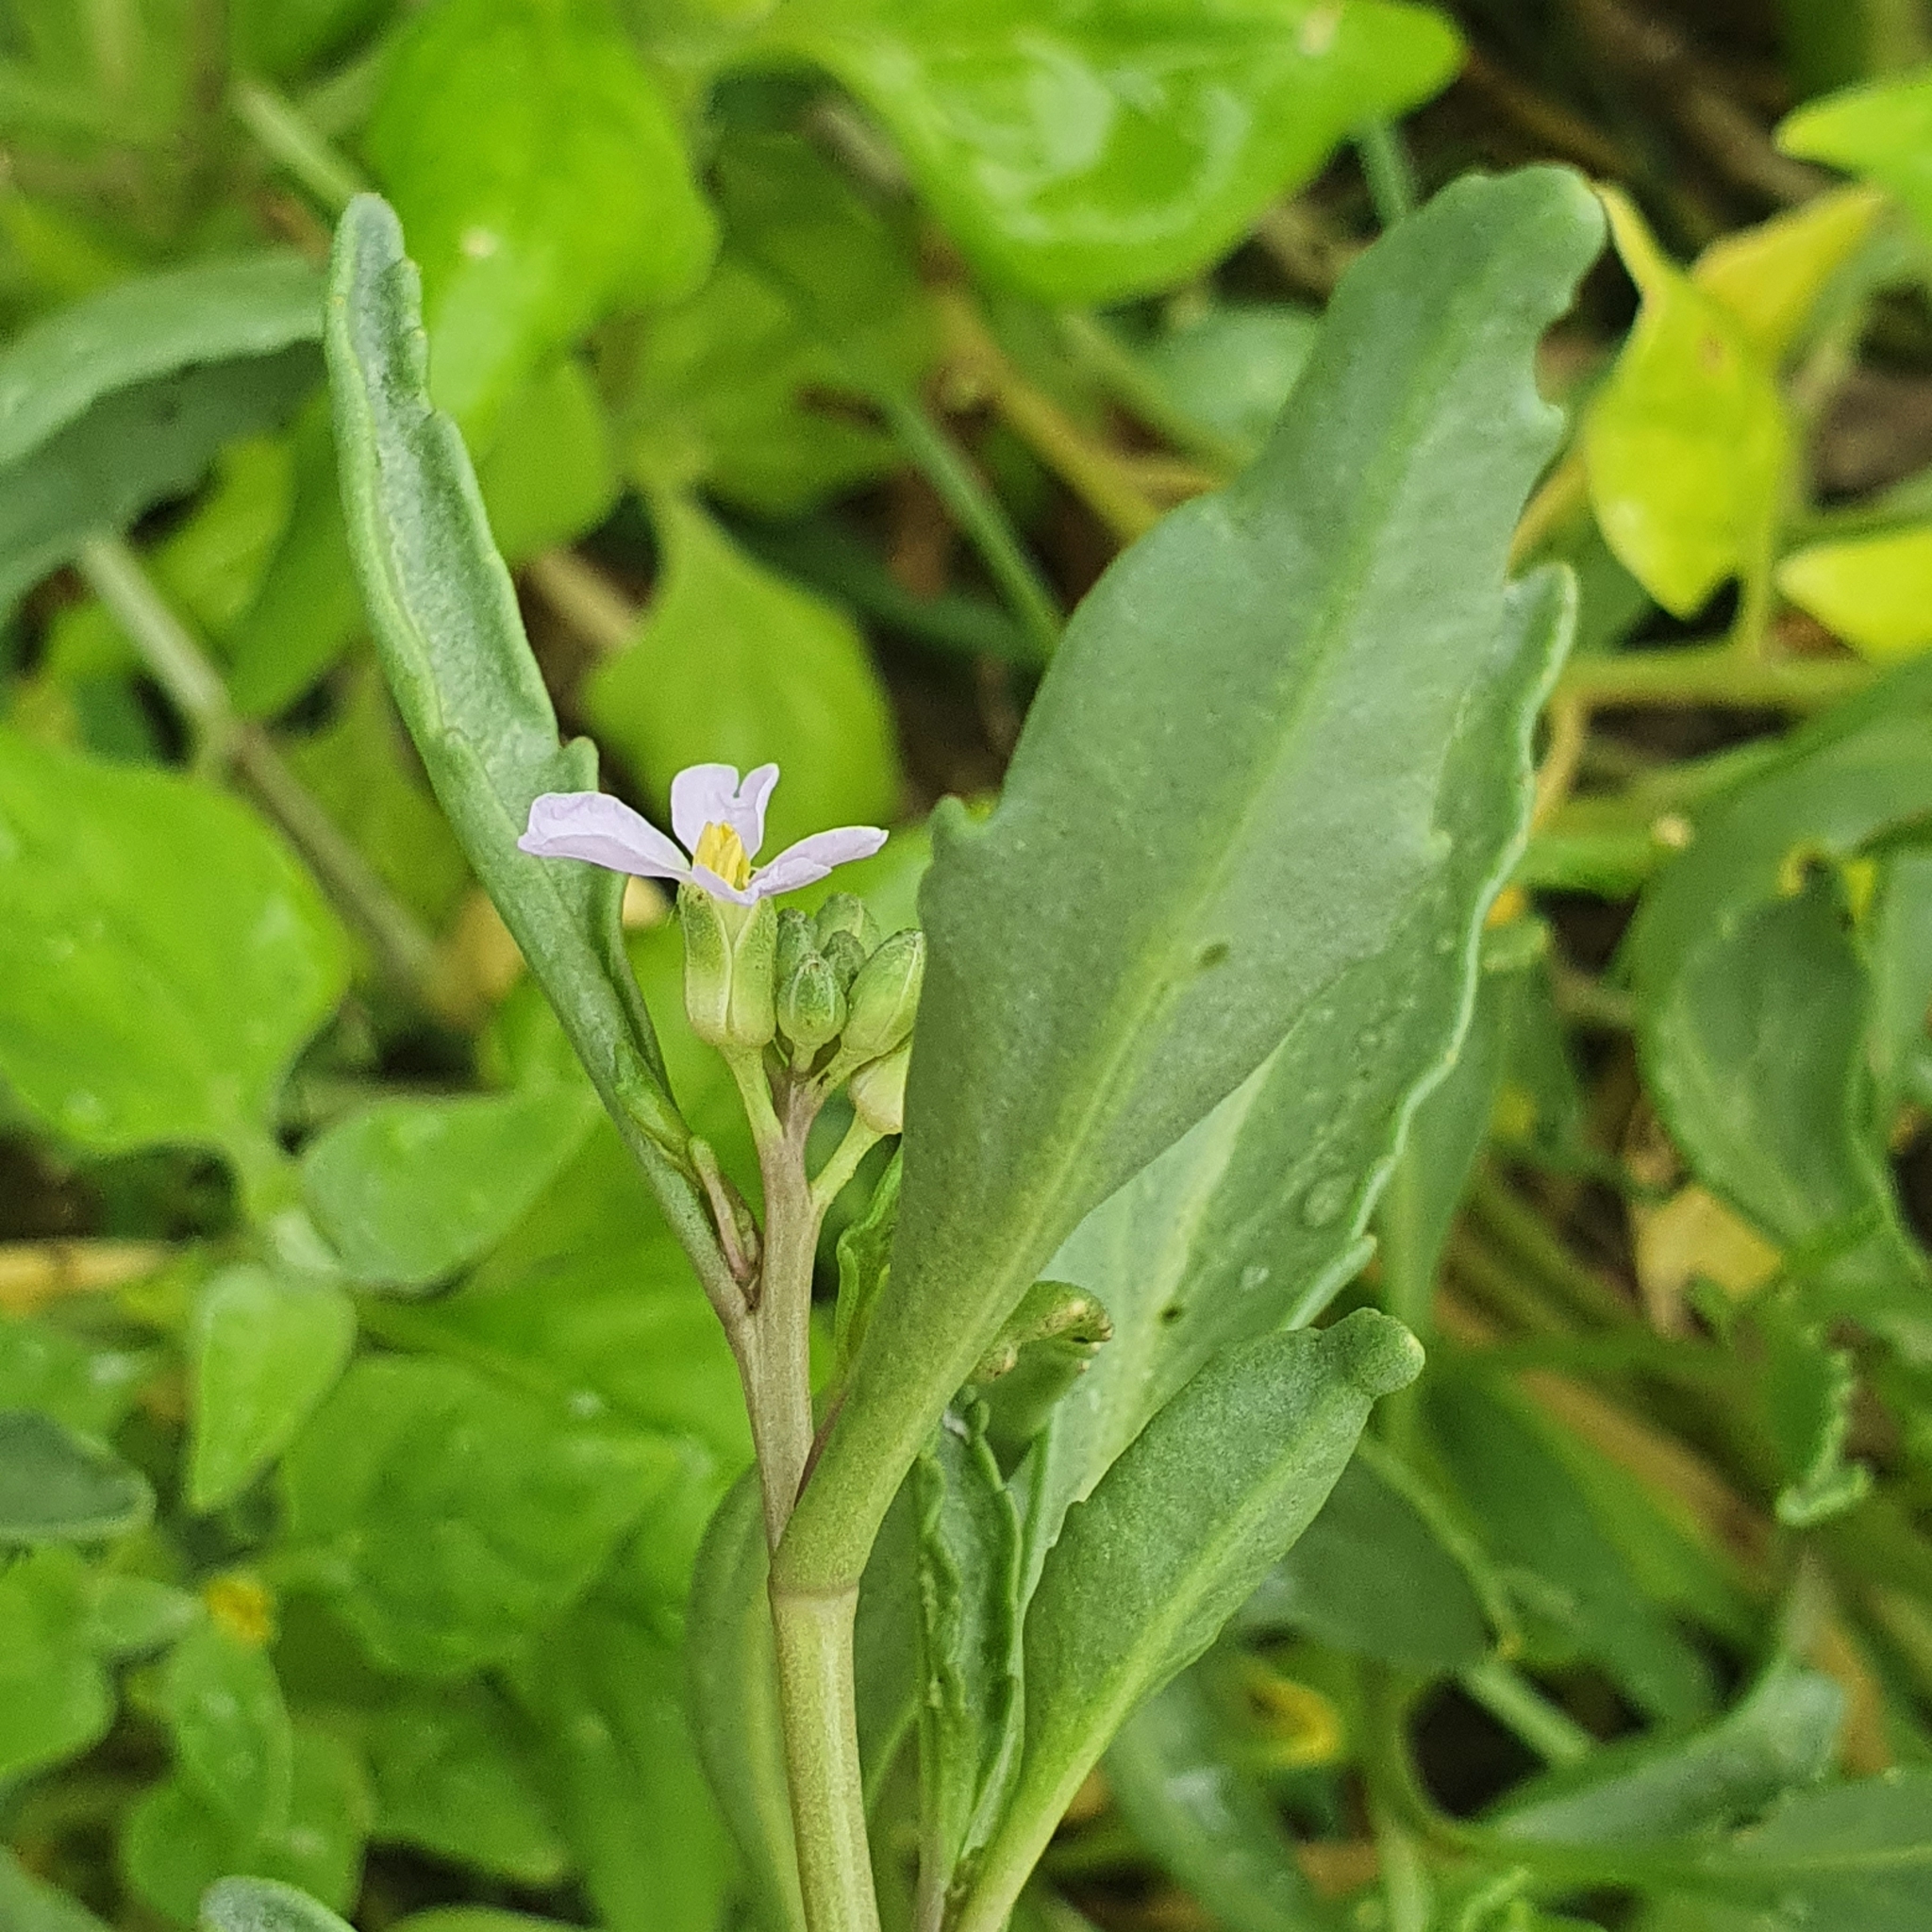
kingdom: Plantae
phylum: Tracheophyta
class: Magnoliopsida
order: Brassicales
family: Brassicaceae
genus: Cakile
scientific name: Cakile maritima
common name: Sea rocket
